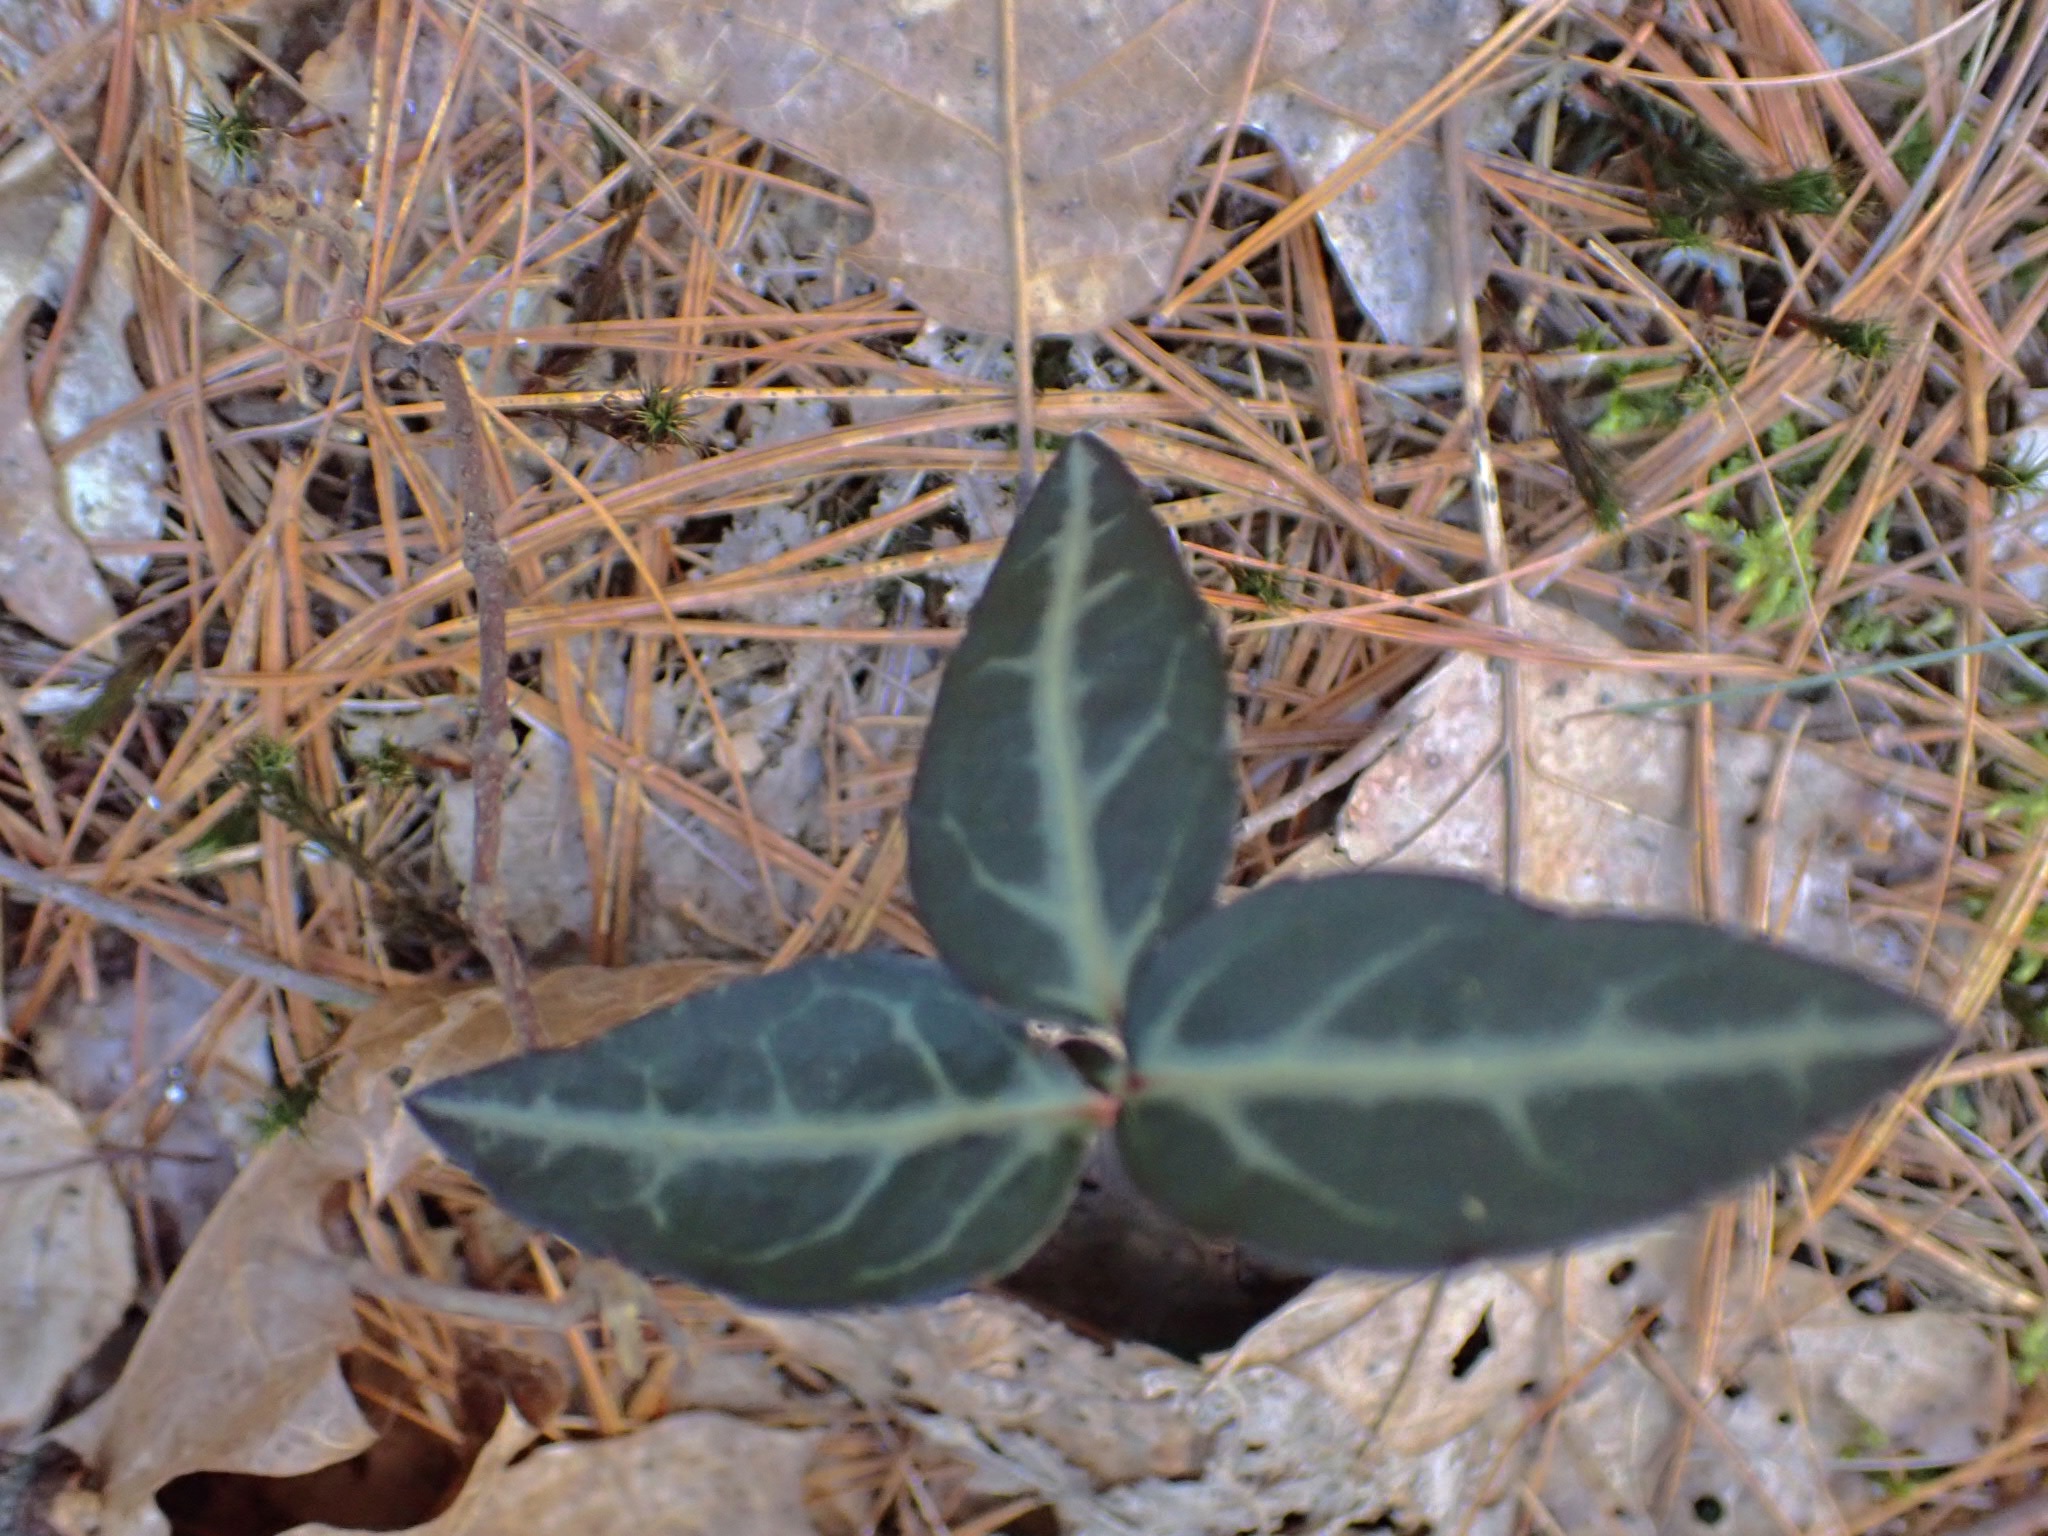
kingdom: Plantae
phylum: Tracheophyta
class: Magnoliopsida
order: Ericales
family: Ericaceae
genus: Chimaphila
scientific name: Chimaphila maculata
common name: Spotted pipsissewa
